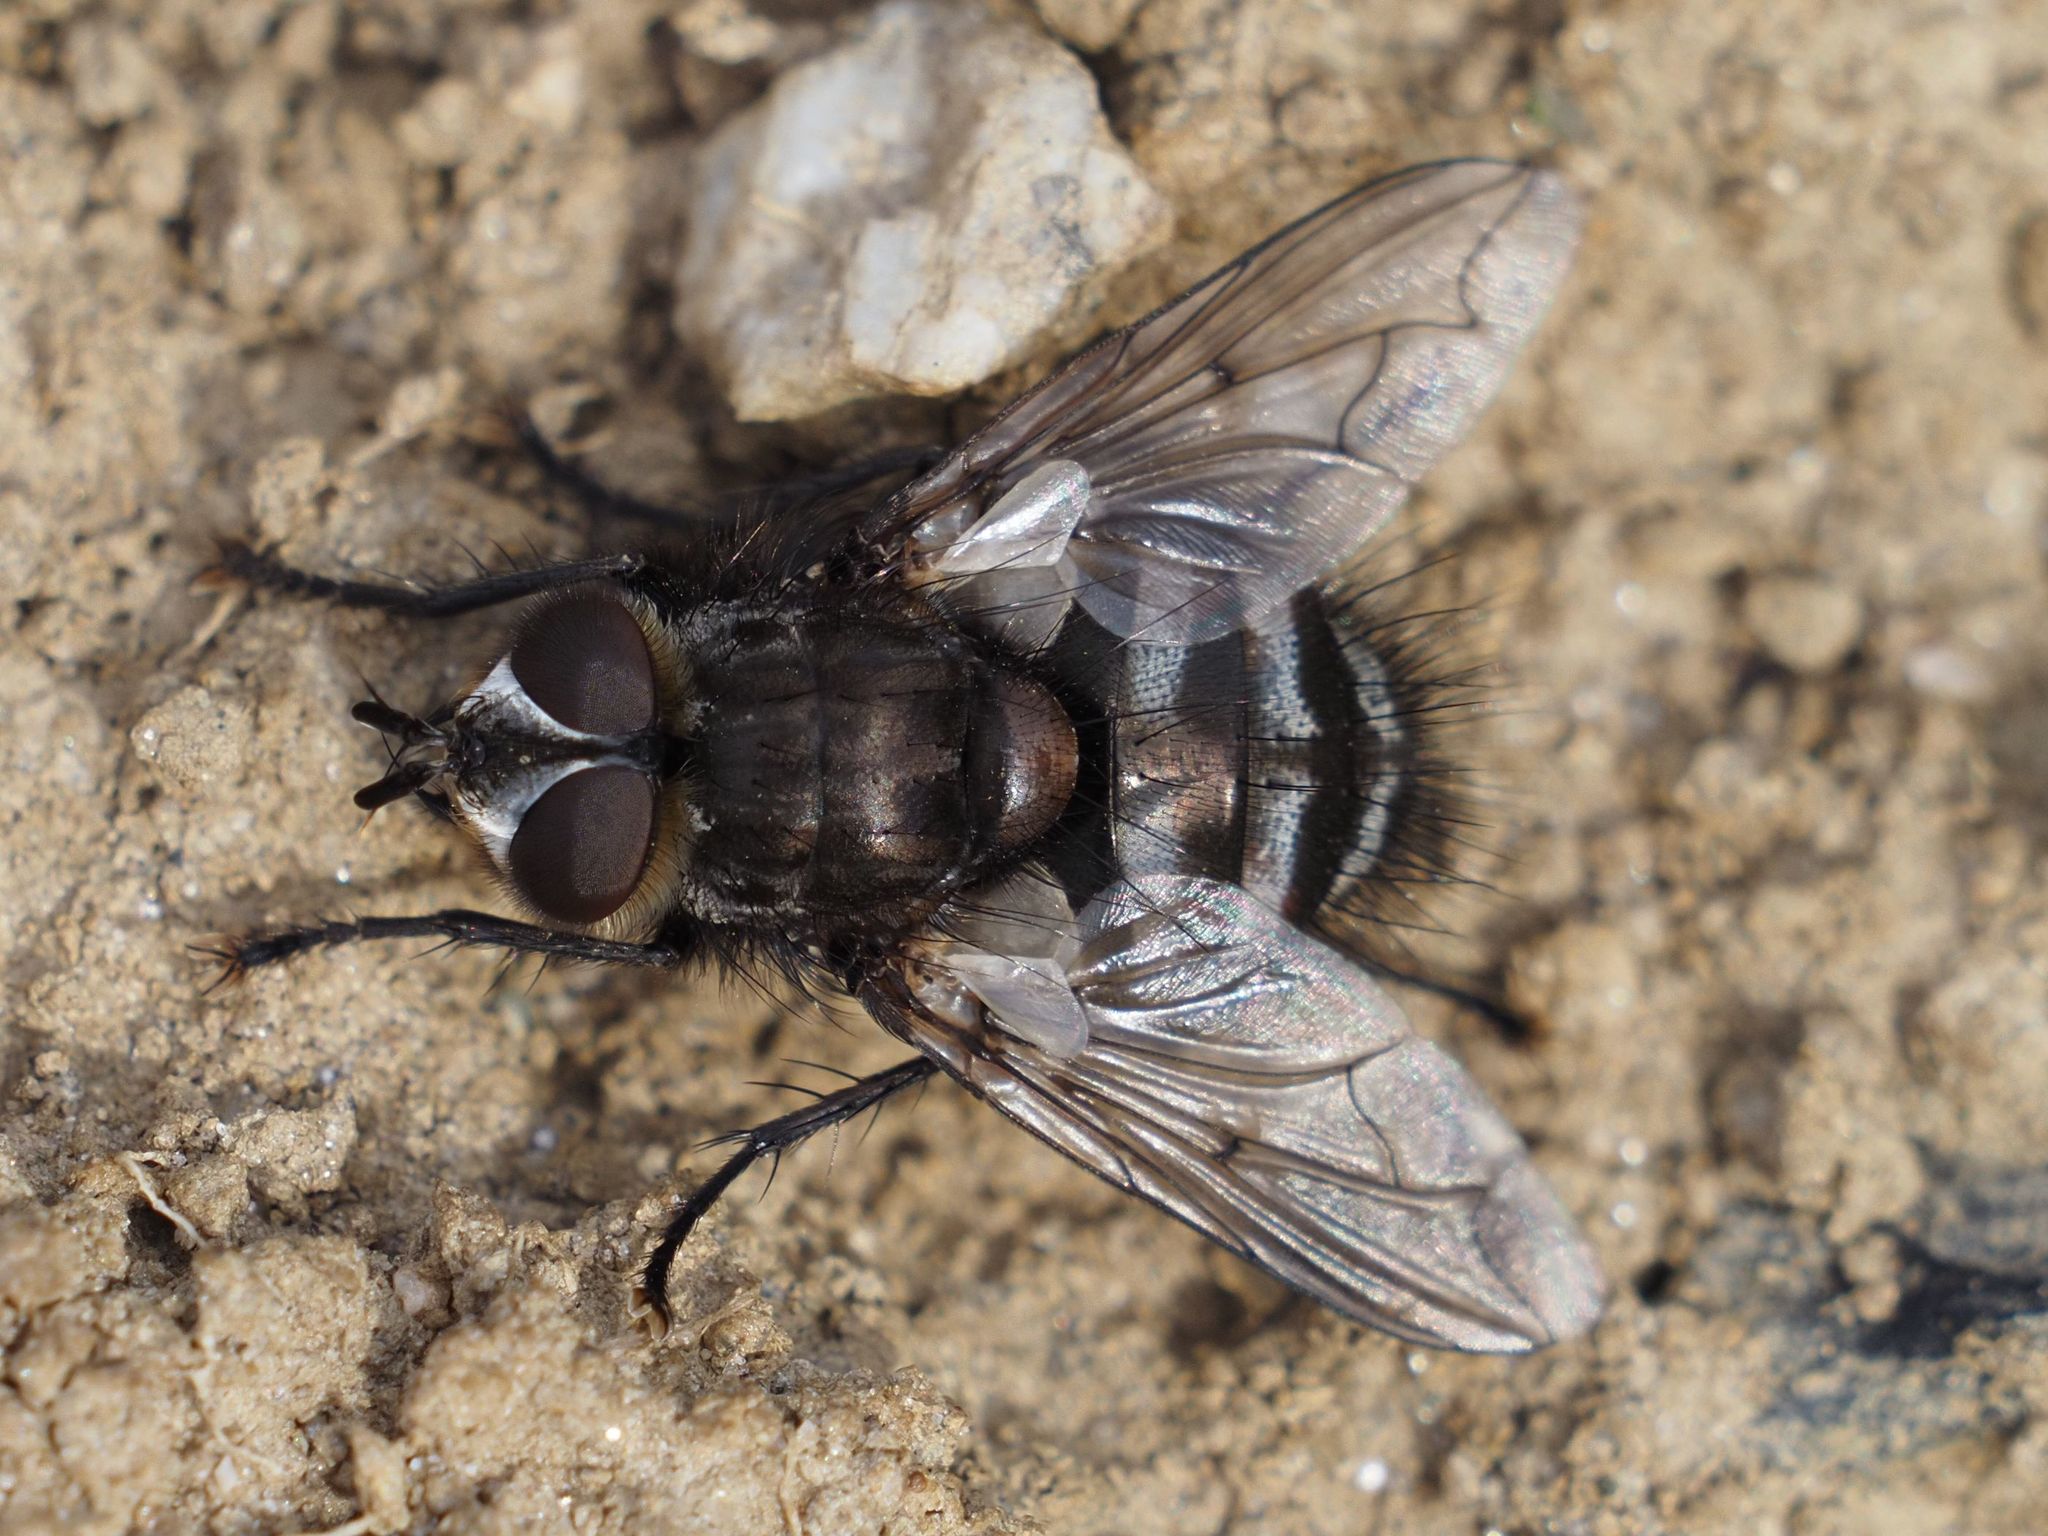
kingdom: Animalia
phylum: Arthropoda
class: Insecta
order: Diptera
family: Tachinidae
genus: Panzeria
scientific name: Panzeria puparum
